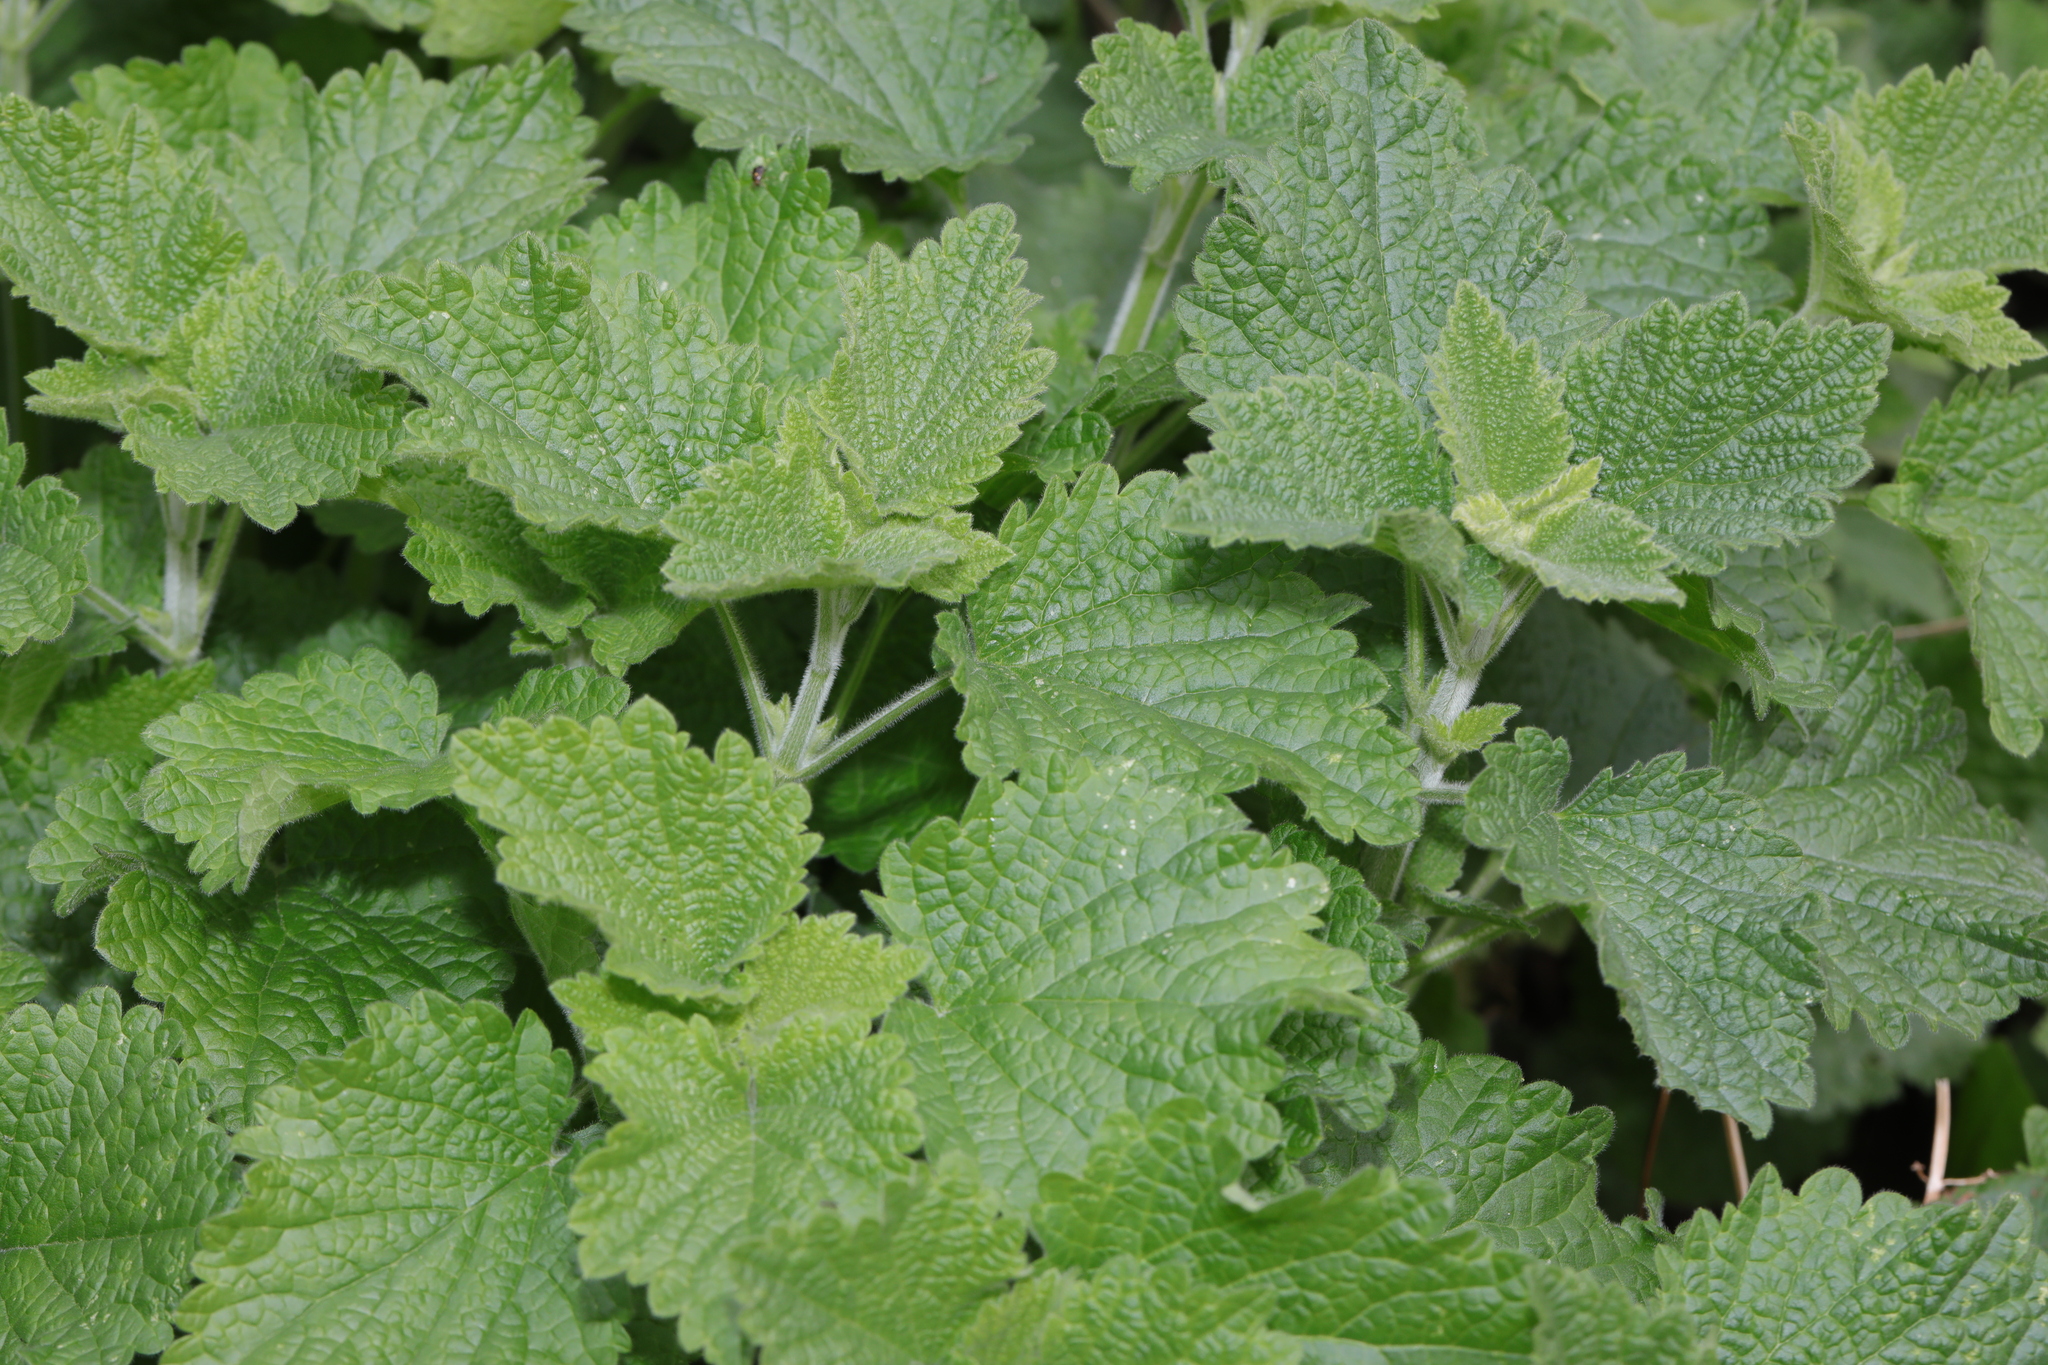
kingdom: Plantae
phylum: Tracheophyta
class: Magnoliopsida
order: Lamiales
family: Lamiaceae
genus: Ballota
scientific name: Ballota nigra
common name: Black horehound
